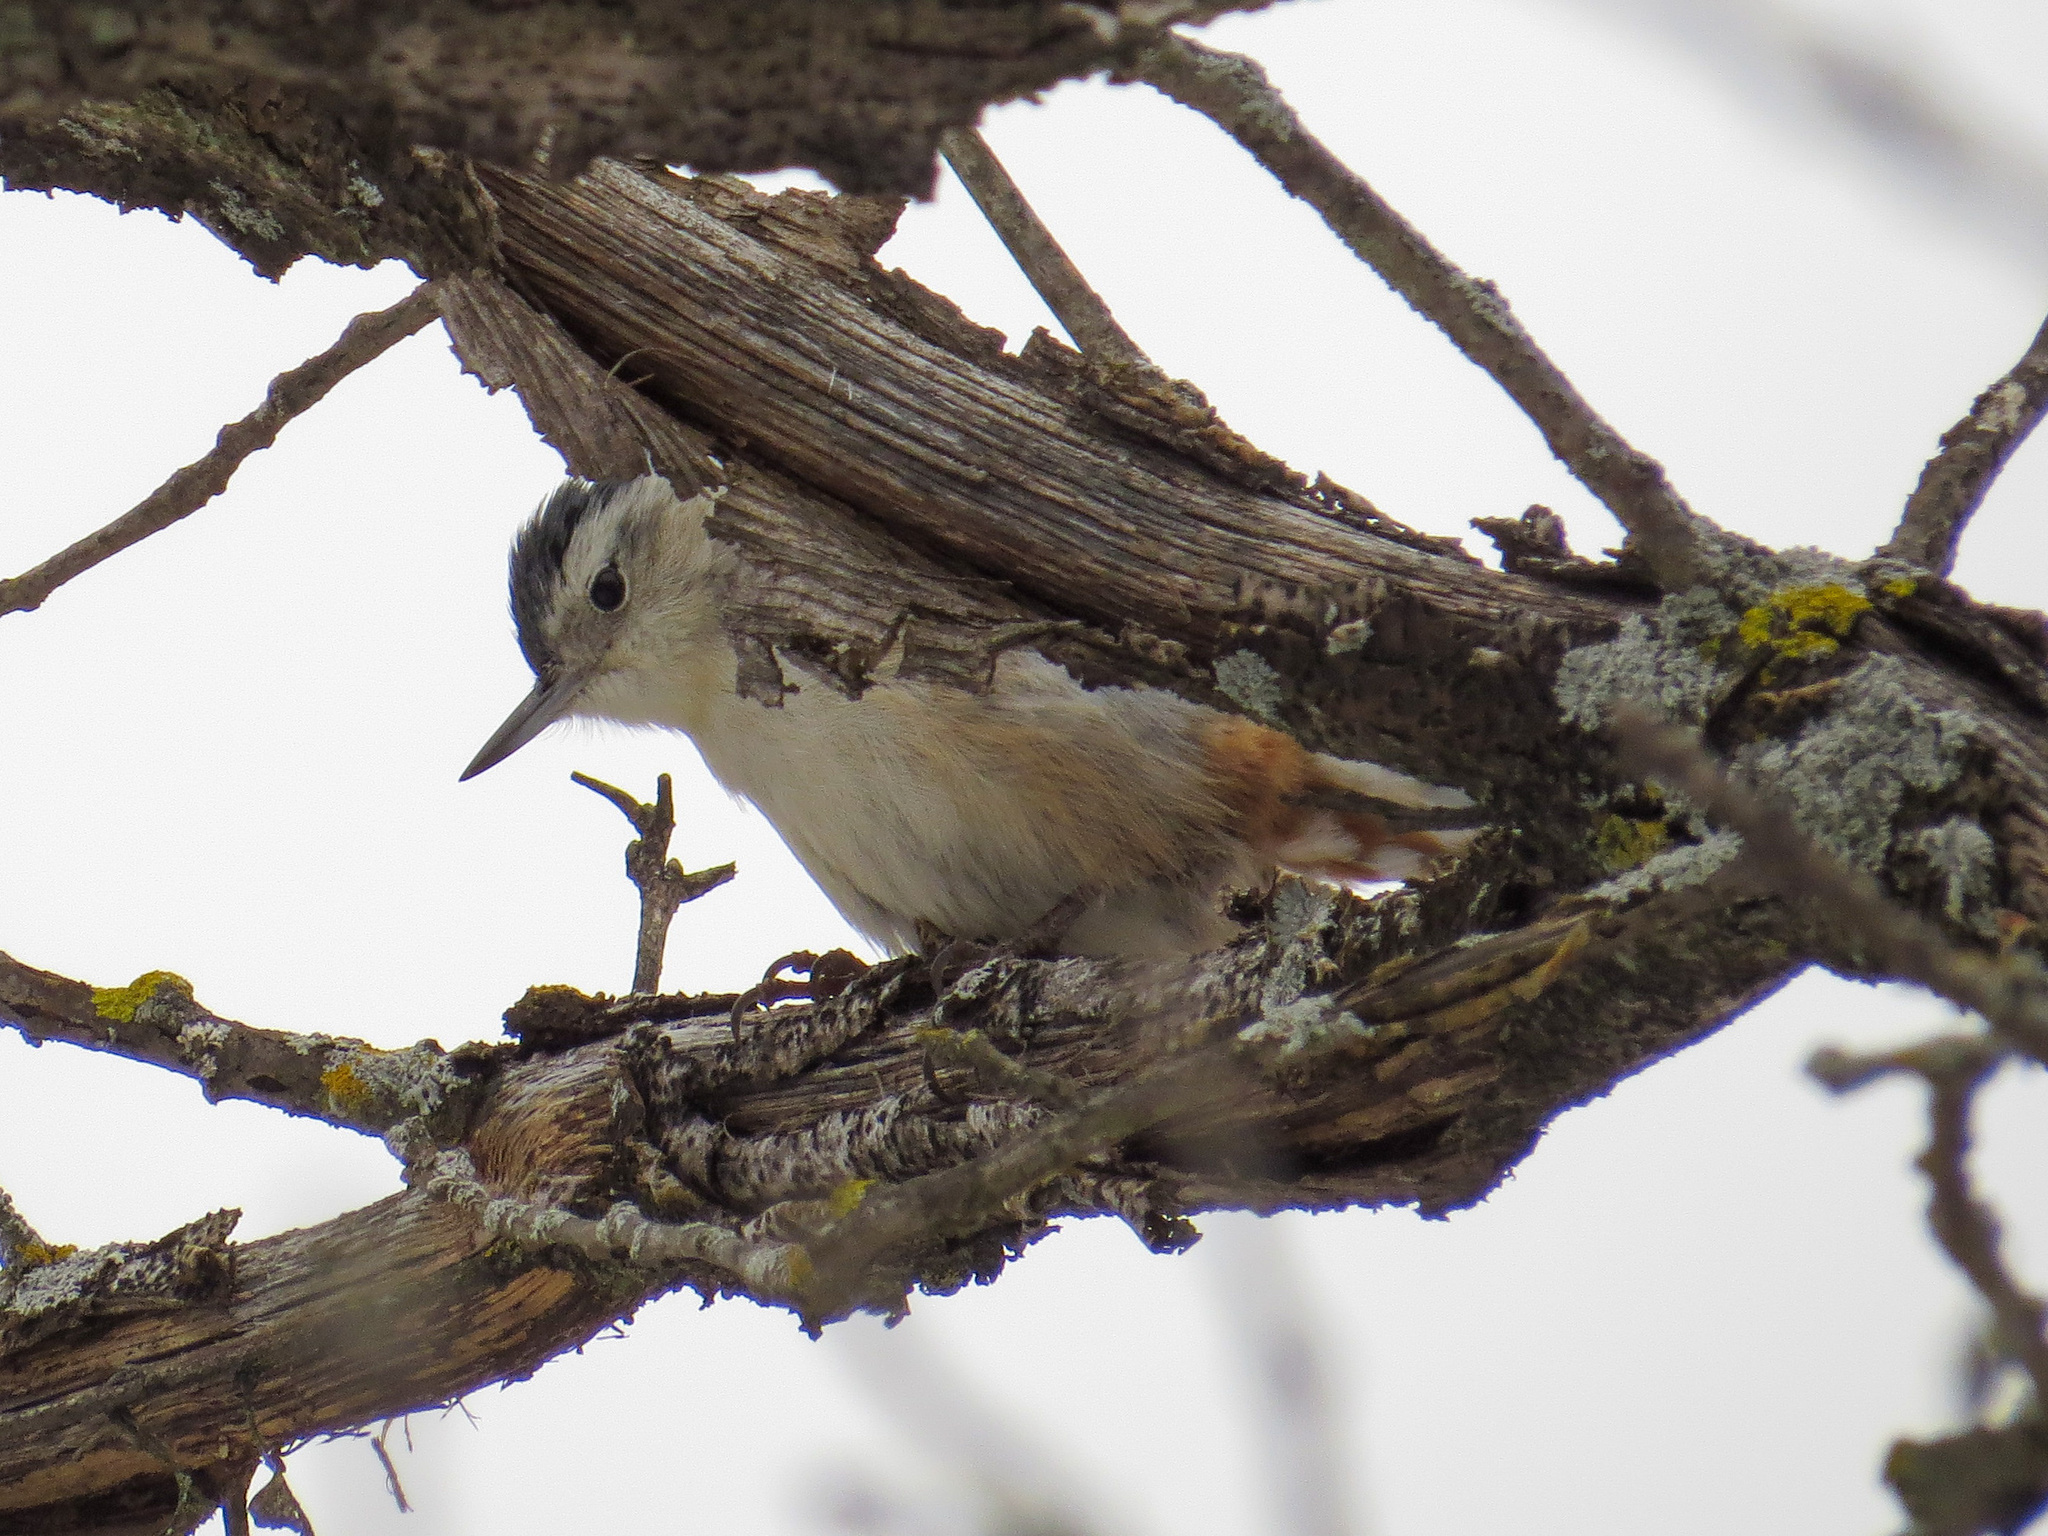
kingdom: Animalia
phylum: Chordata
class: Aves
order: Passeriformes
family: Sittidae
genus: Sitta
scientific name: Sitta carolinensis
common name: White-breasted nuthatch
